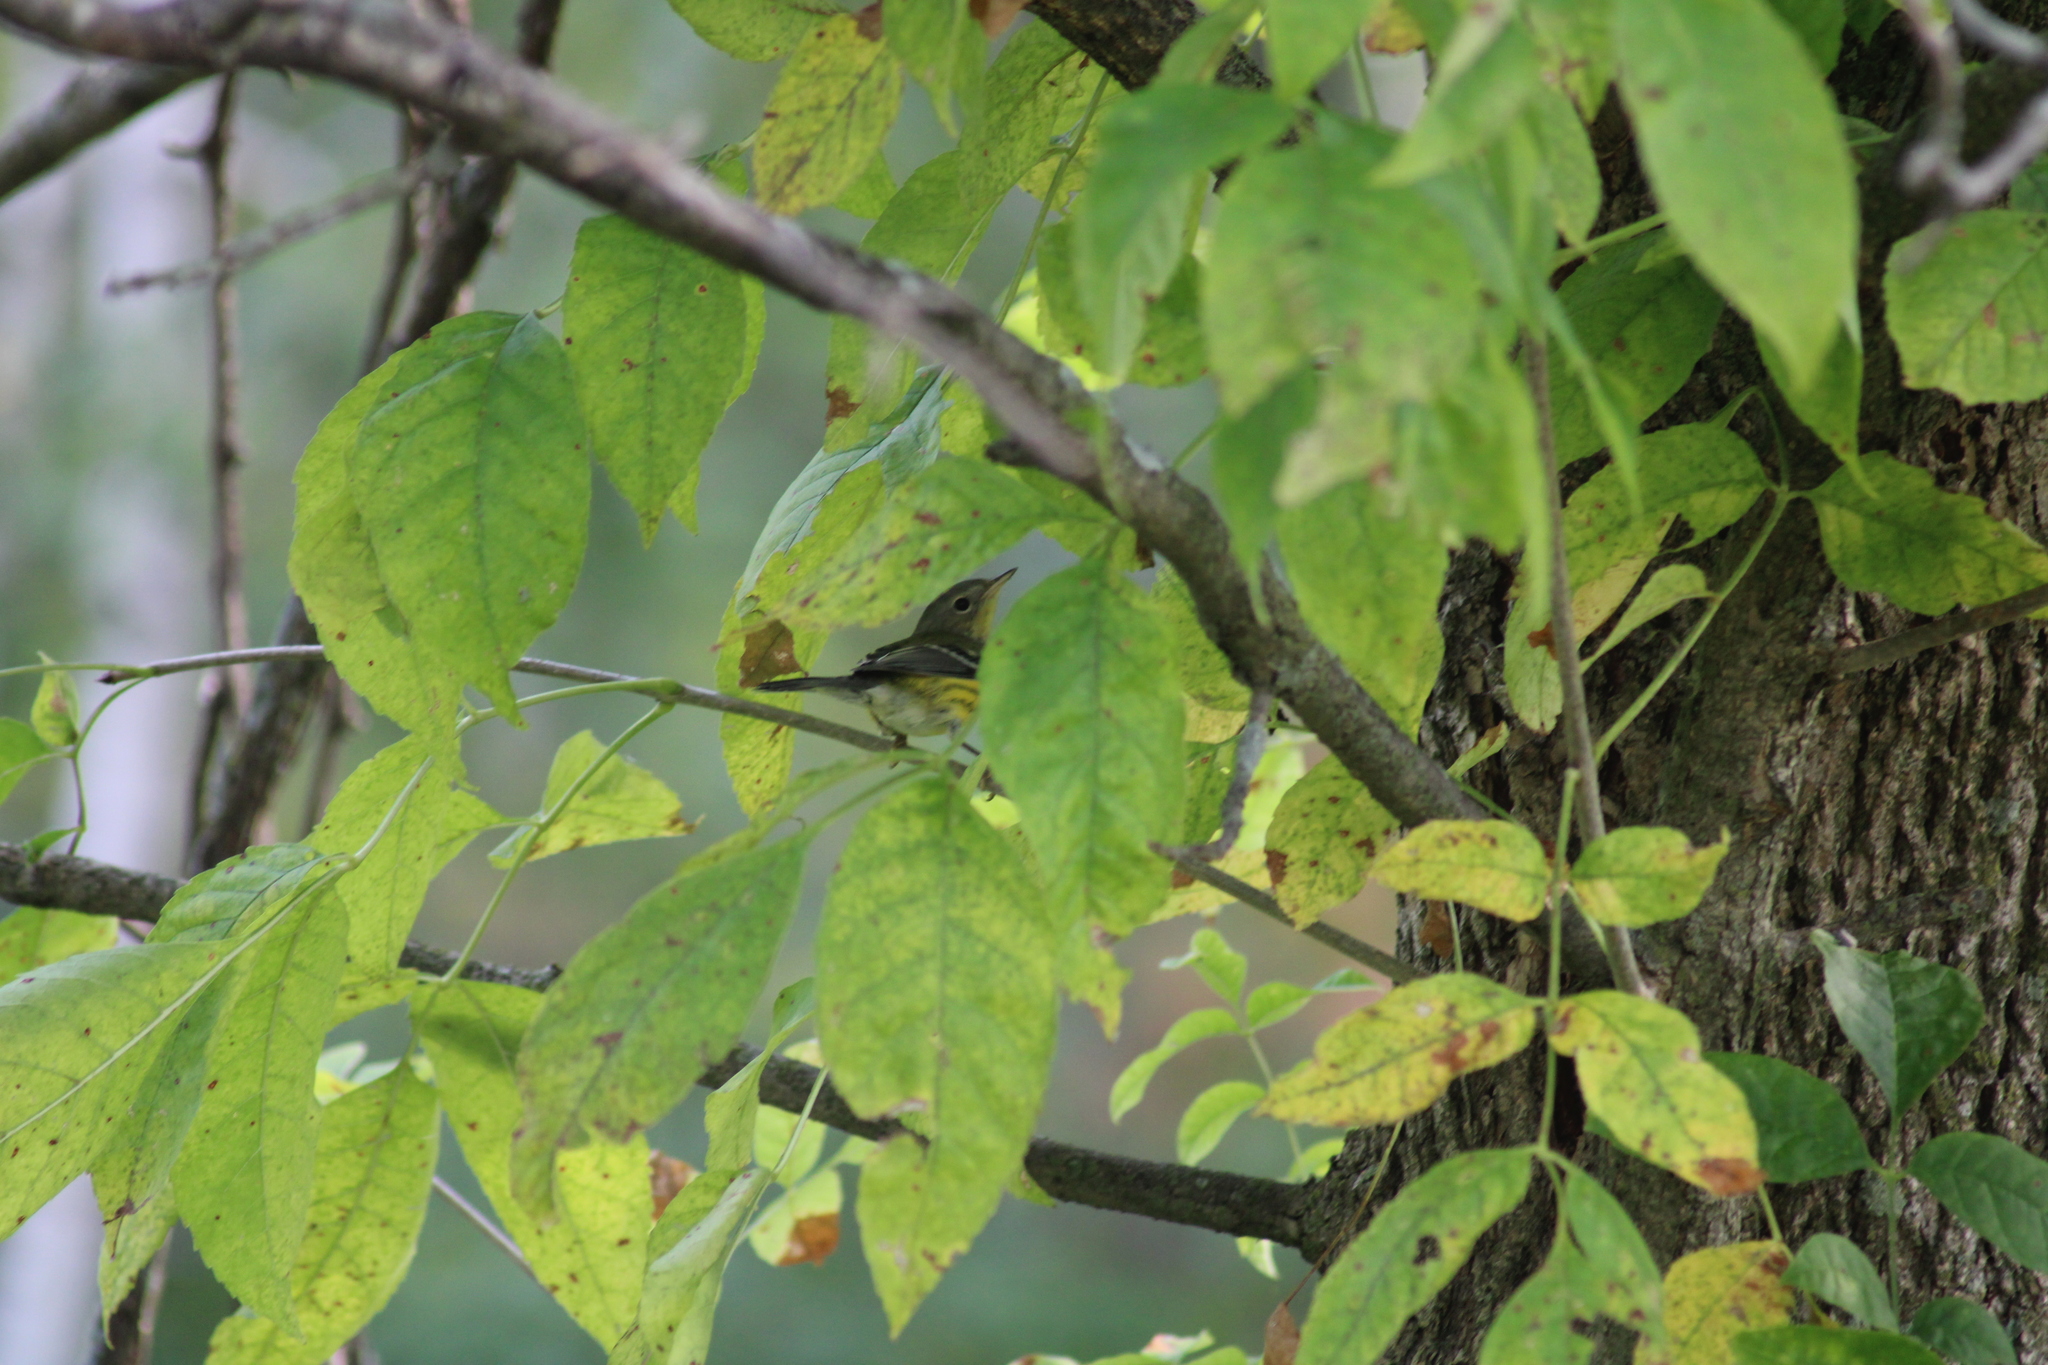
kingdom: Animalia
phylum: Chordata
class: Aves
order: Passeriformes
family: Parulidae
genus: Setophaga
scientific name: Setophaga magnolia
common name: Magnolia warbler
